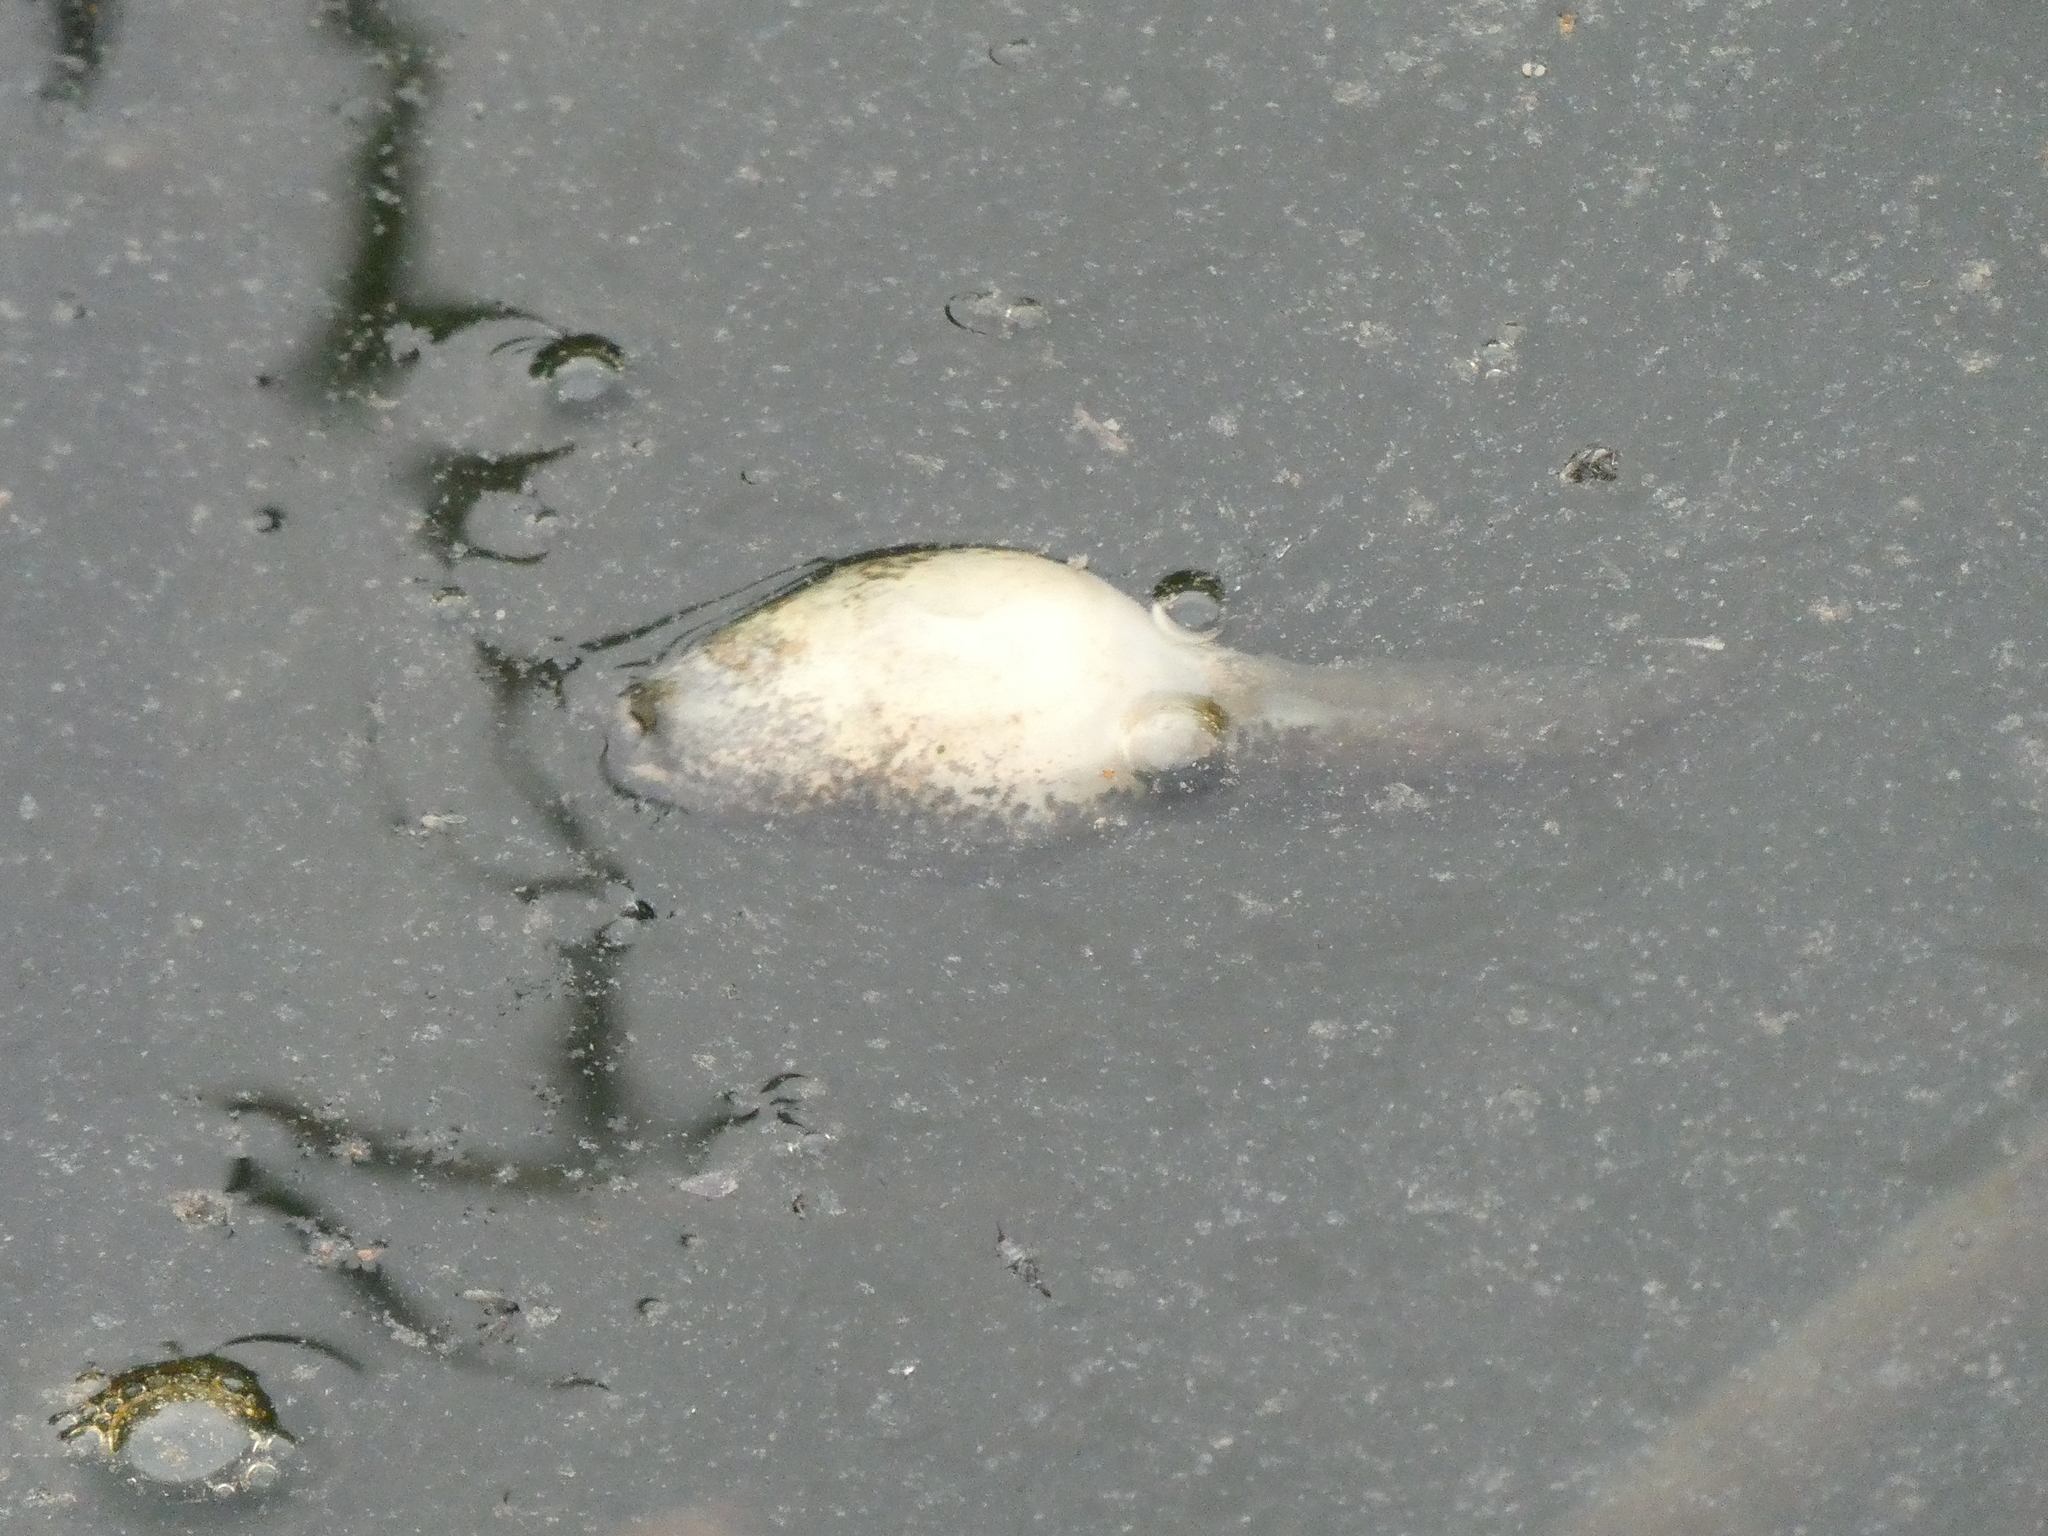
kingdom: Animalia
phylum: Chordata
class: Amphibia
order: Anura
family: Ranidae
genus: Lithobates
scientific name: Lithobates
